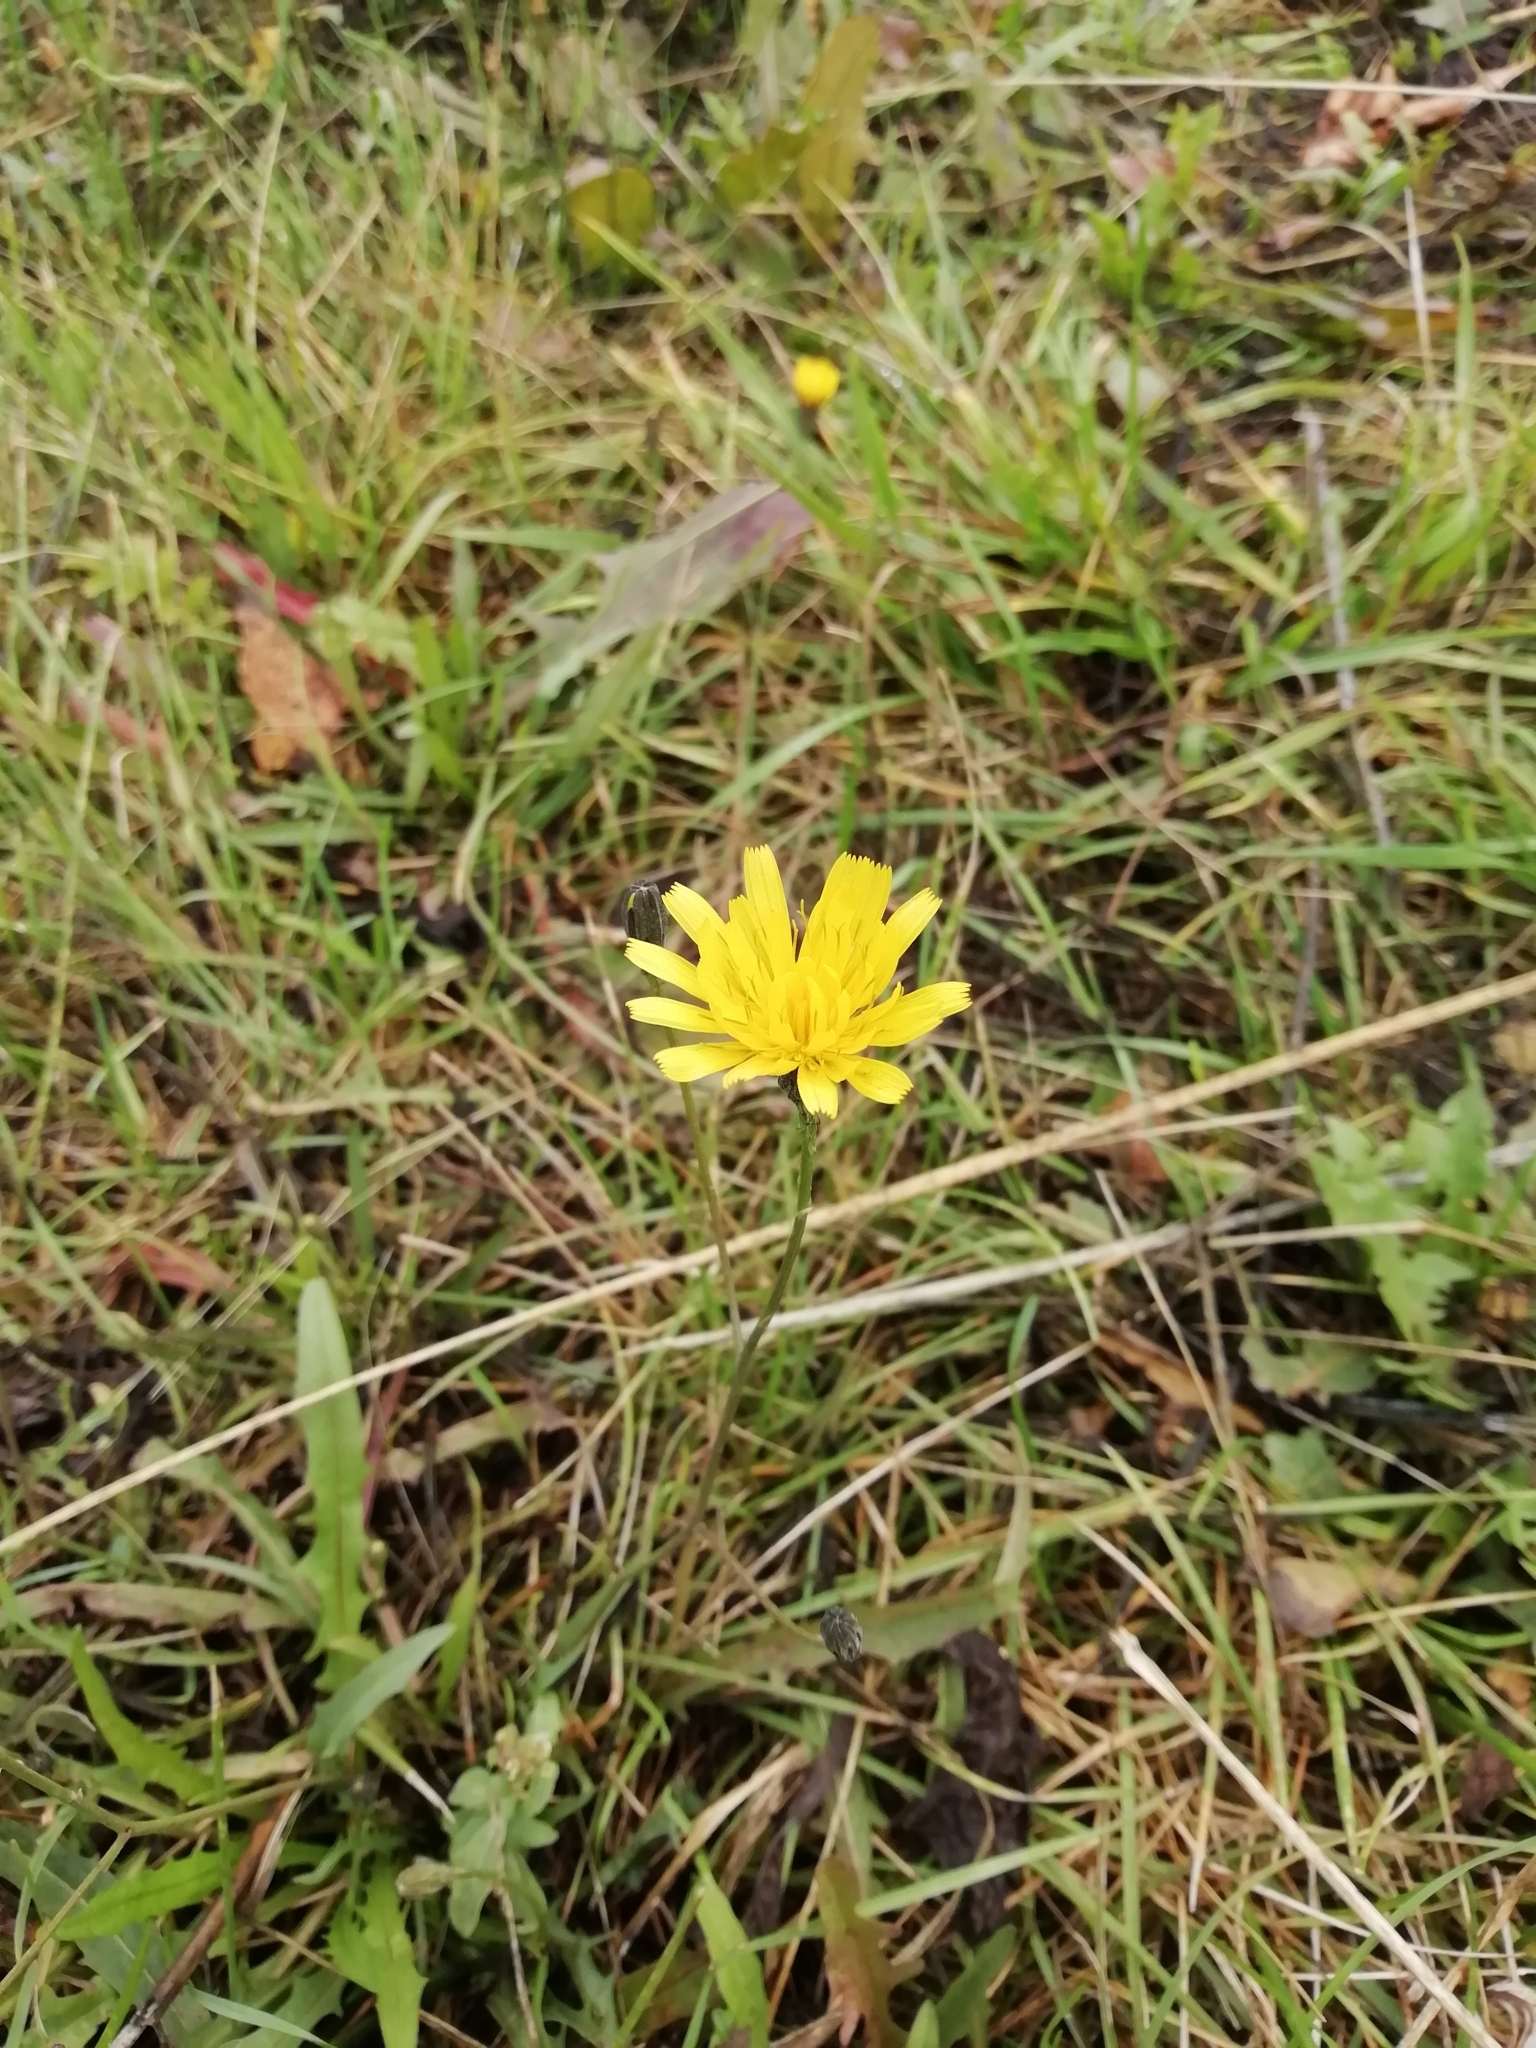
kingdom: Plantae
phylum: Tracheophyta
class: Magnoliopsida
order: Asterales
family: Asteraceae
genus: Scorzoneroides
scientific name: Scorzoneroides autumnalis
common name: Autumn hawkbit
